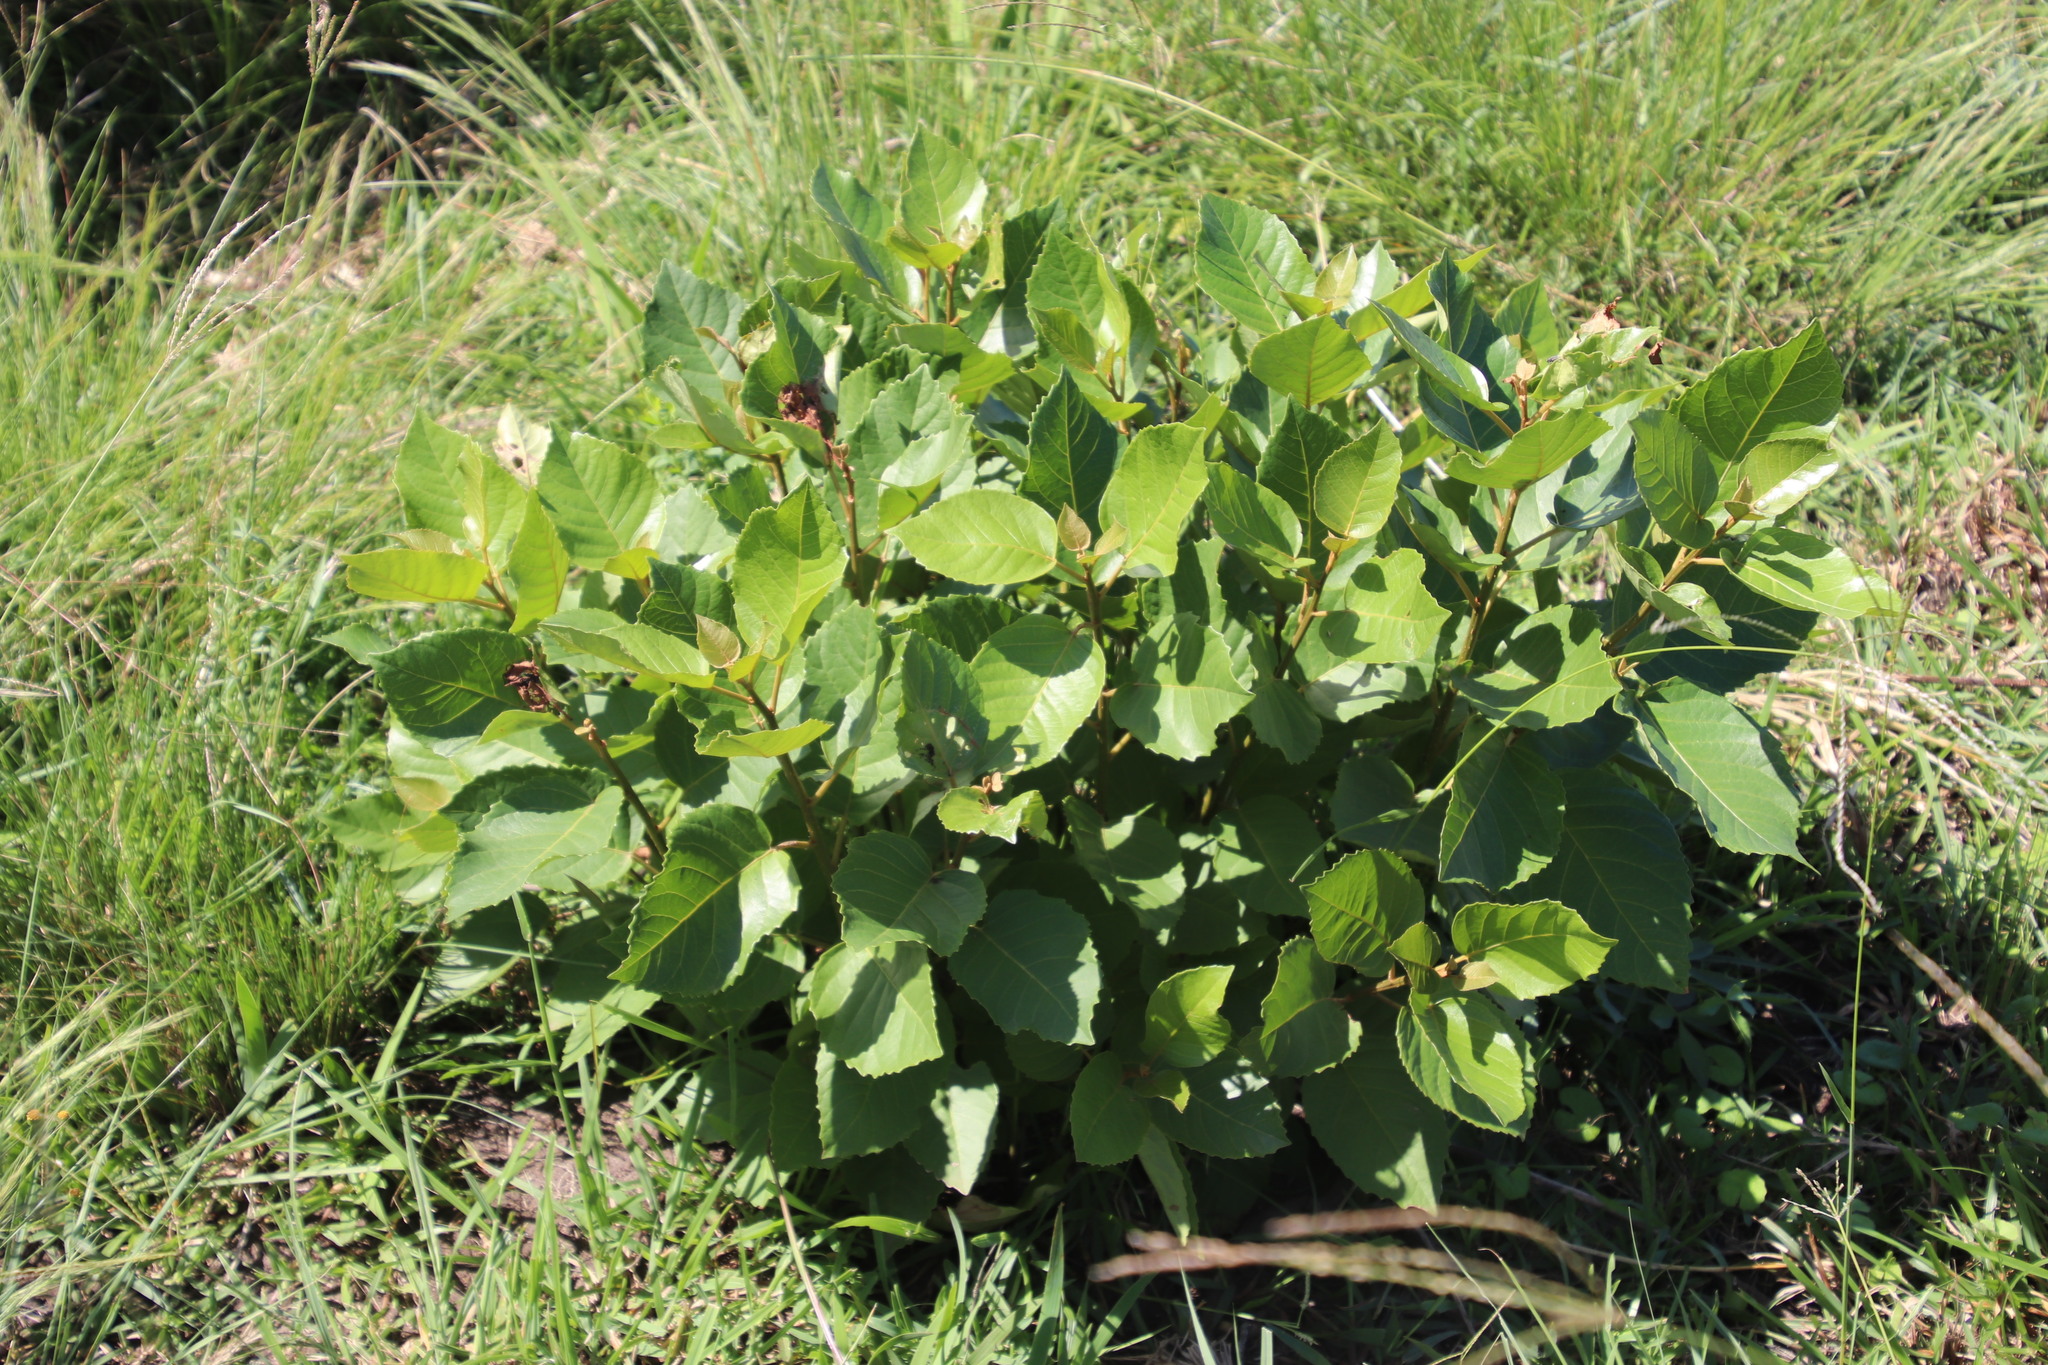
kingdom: Plantae
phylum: Tracheophyta
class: Magnoliopsida
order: Ericales
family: Primulaceae
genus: Maesa
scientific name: Maesa lanceolata
